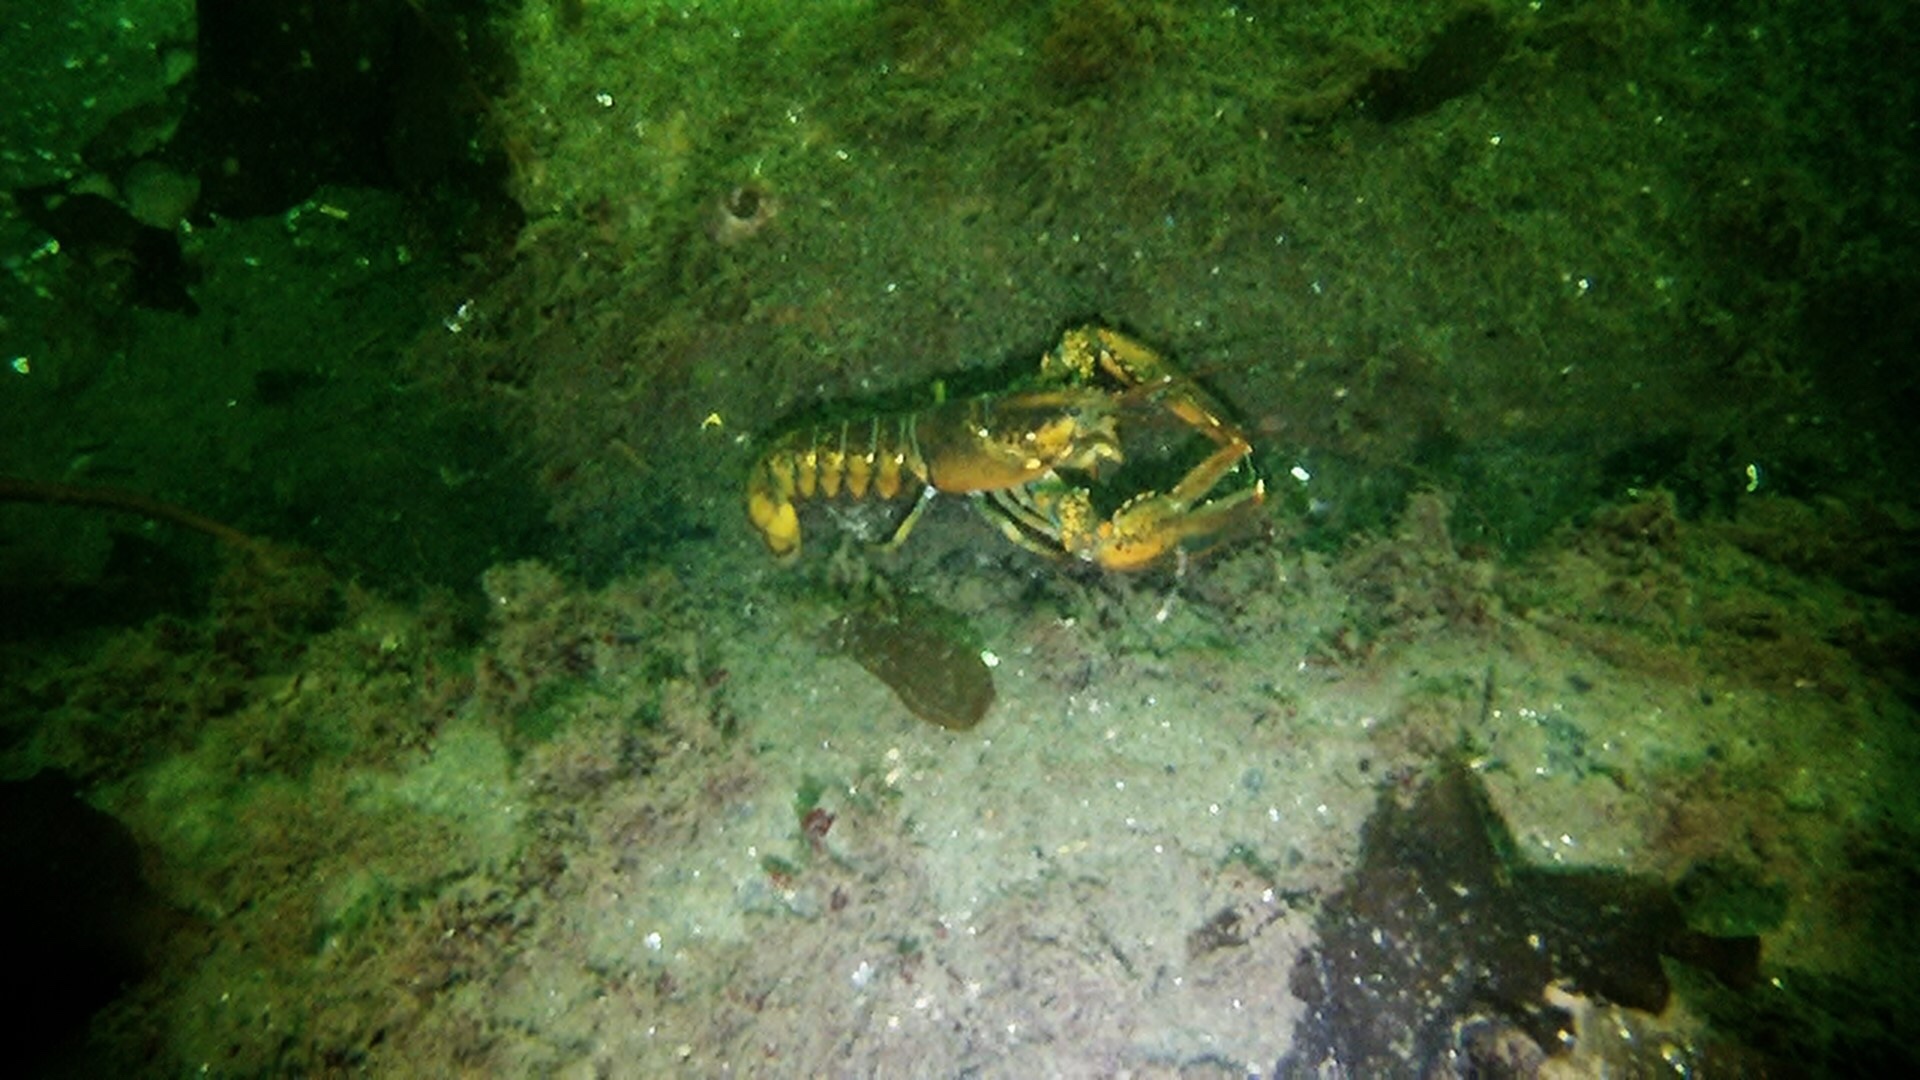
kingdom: Animalia
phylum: Arthropoda
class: Malacostraca
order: Decapoda
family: Nephropidae
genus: Homarus
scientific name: Homarus americanus
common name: American lobster
